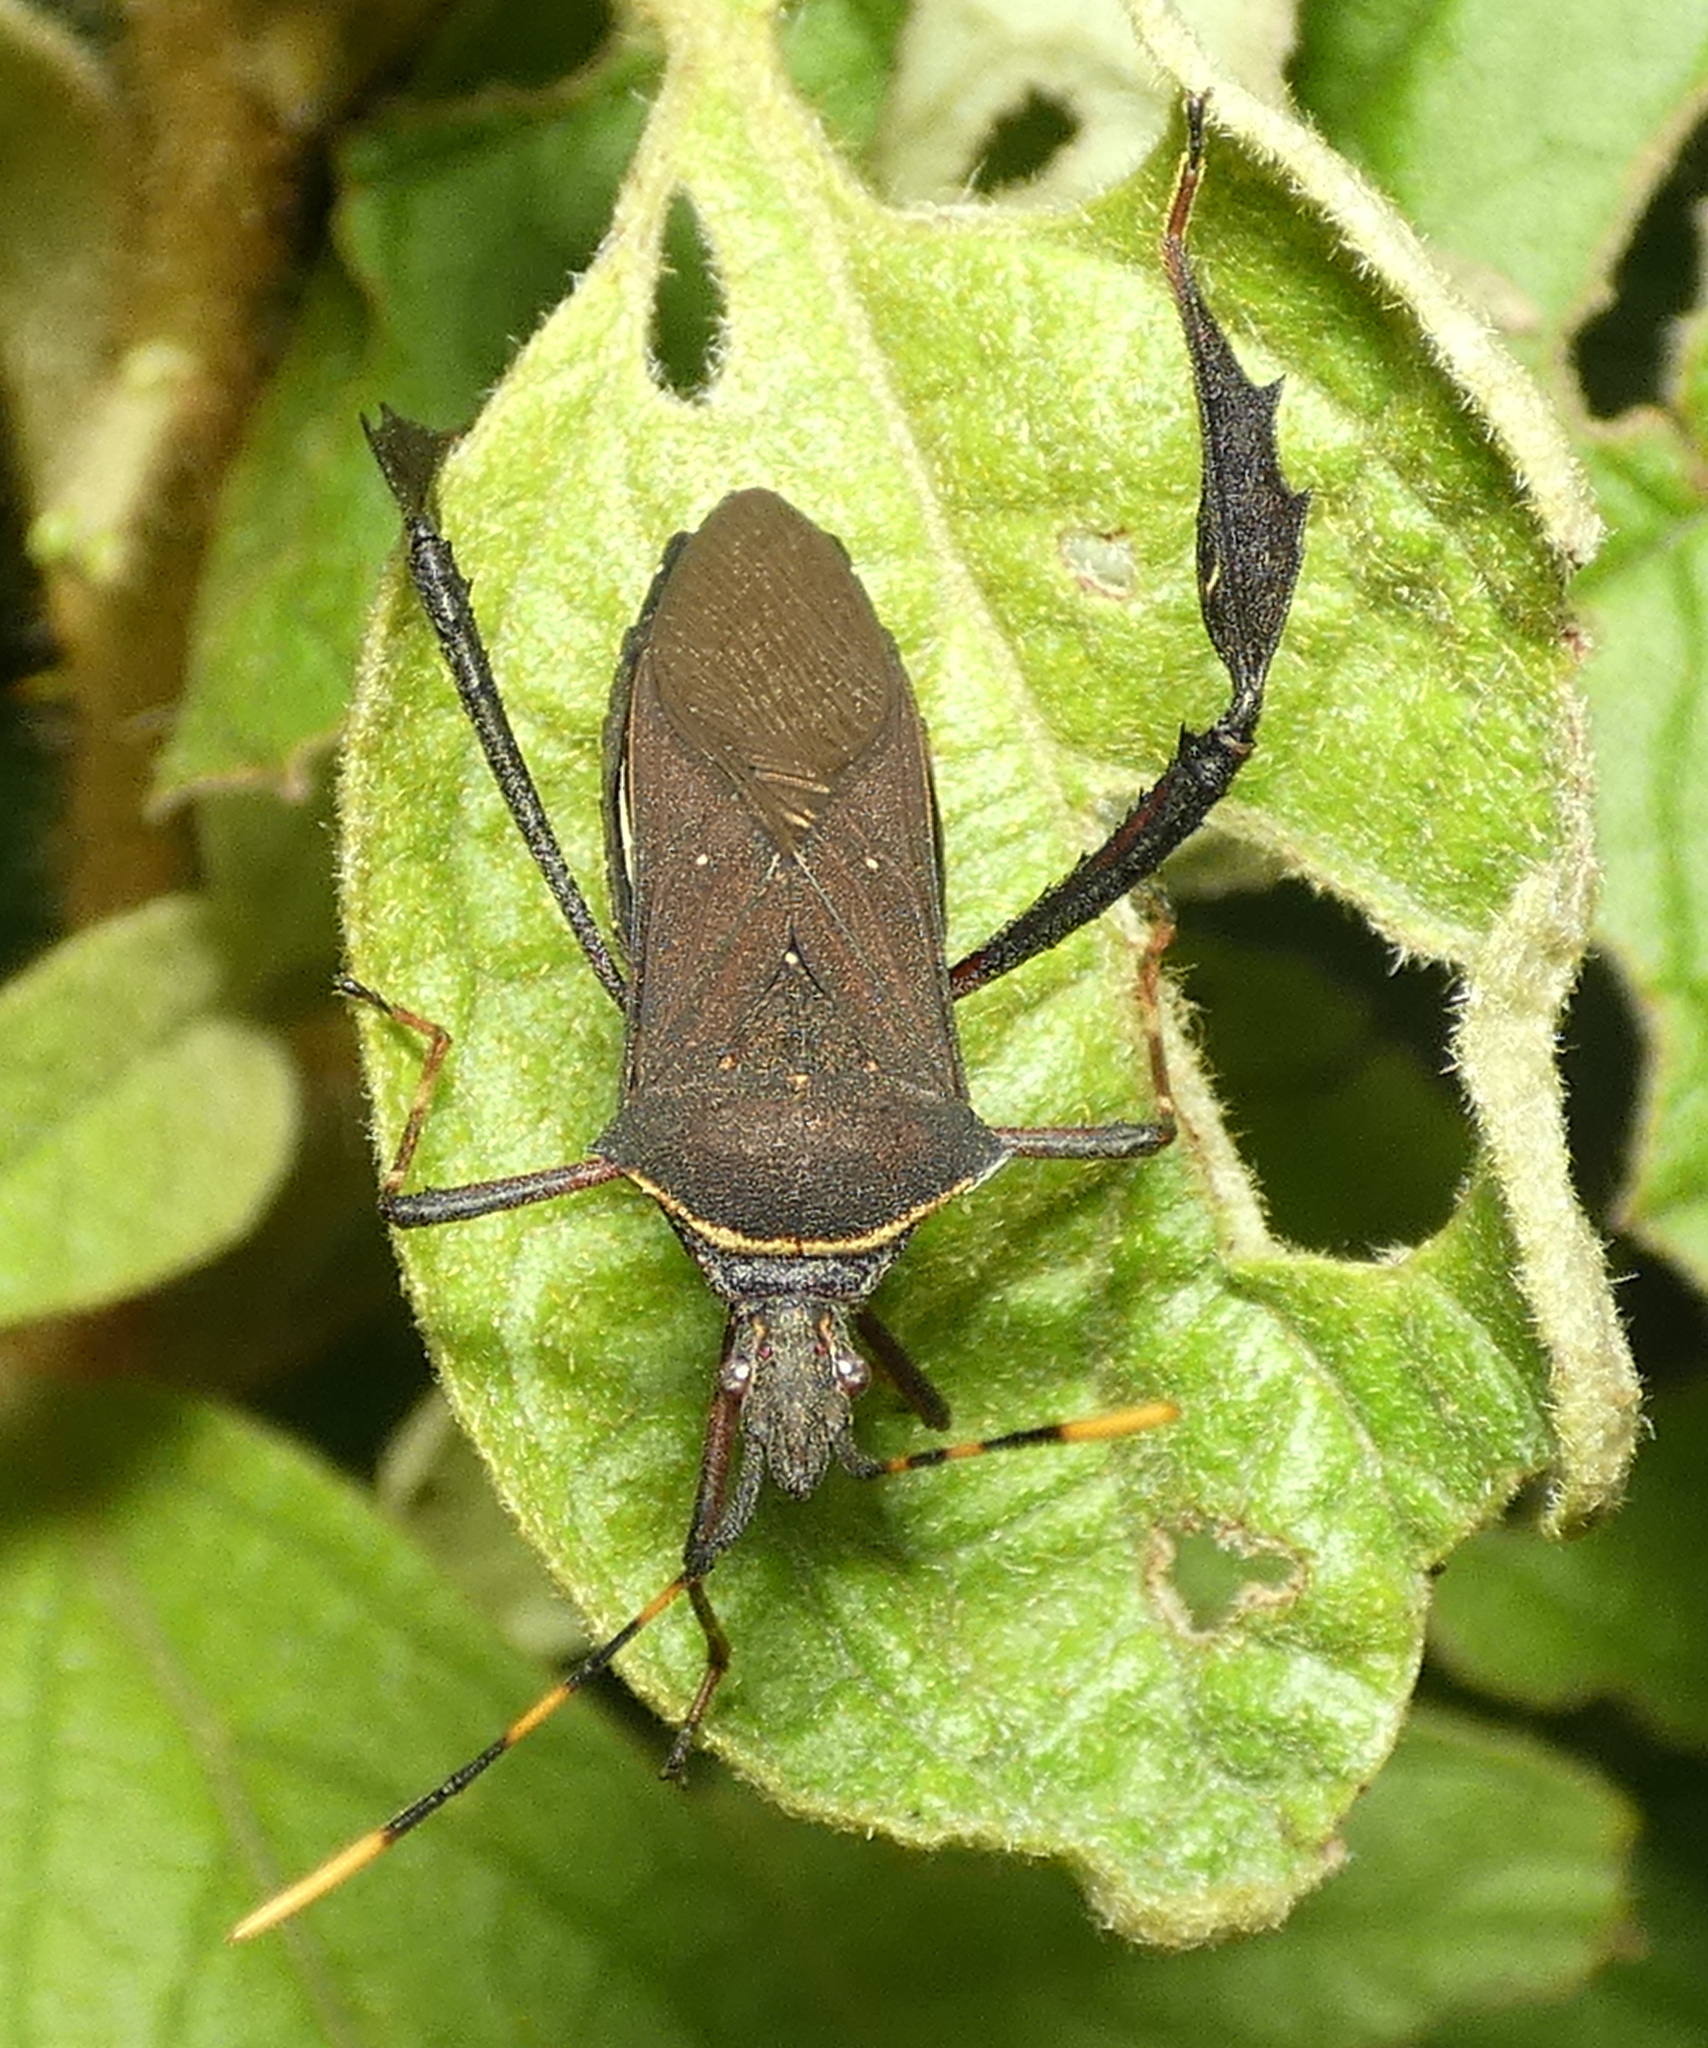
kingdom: Animalia
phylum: Arthropoda
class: Insecta
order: Hemiptera
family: Coreidae
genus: Leptoglossus
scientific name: Leptoglossus gonagra
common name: Citron bug
